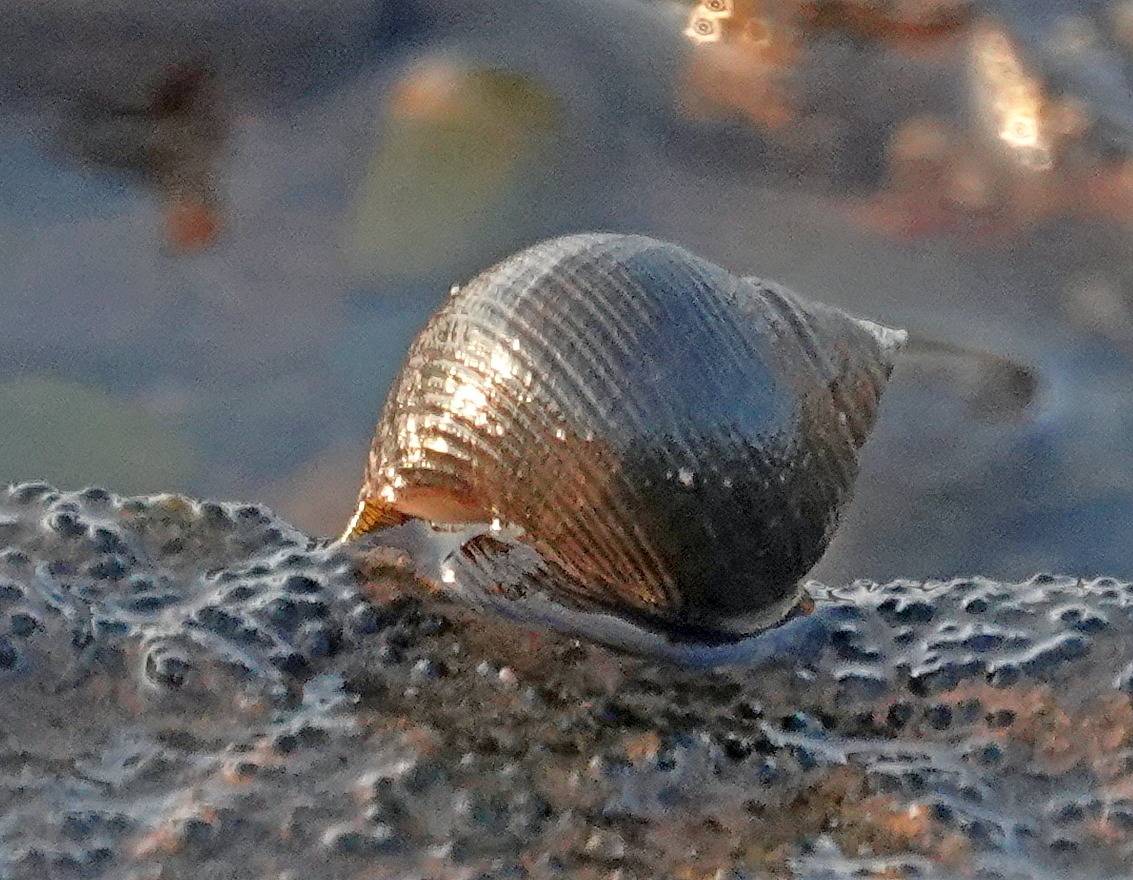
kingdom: Animalia
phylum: Mollusca
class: Gastropoda
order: Littorinimorpha
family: Littorinidae
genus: Littorina
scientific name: Littorina littorea
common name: Common periwinkle
